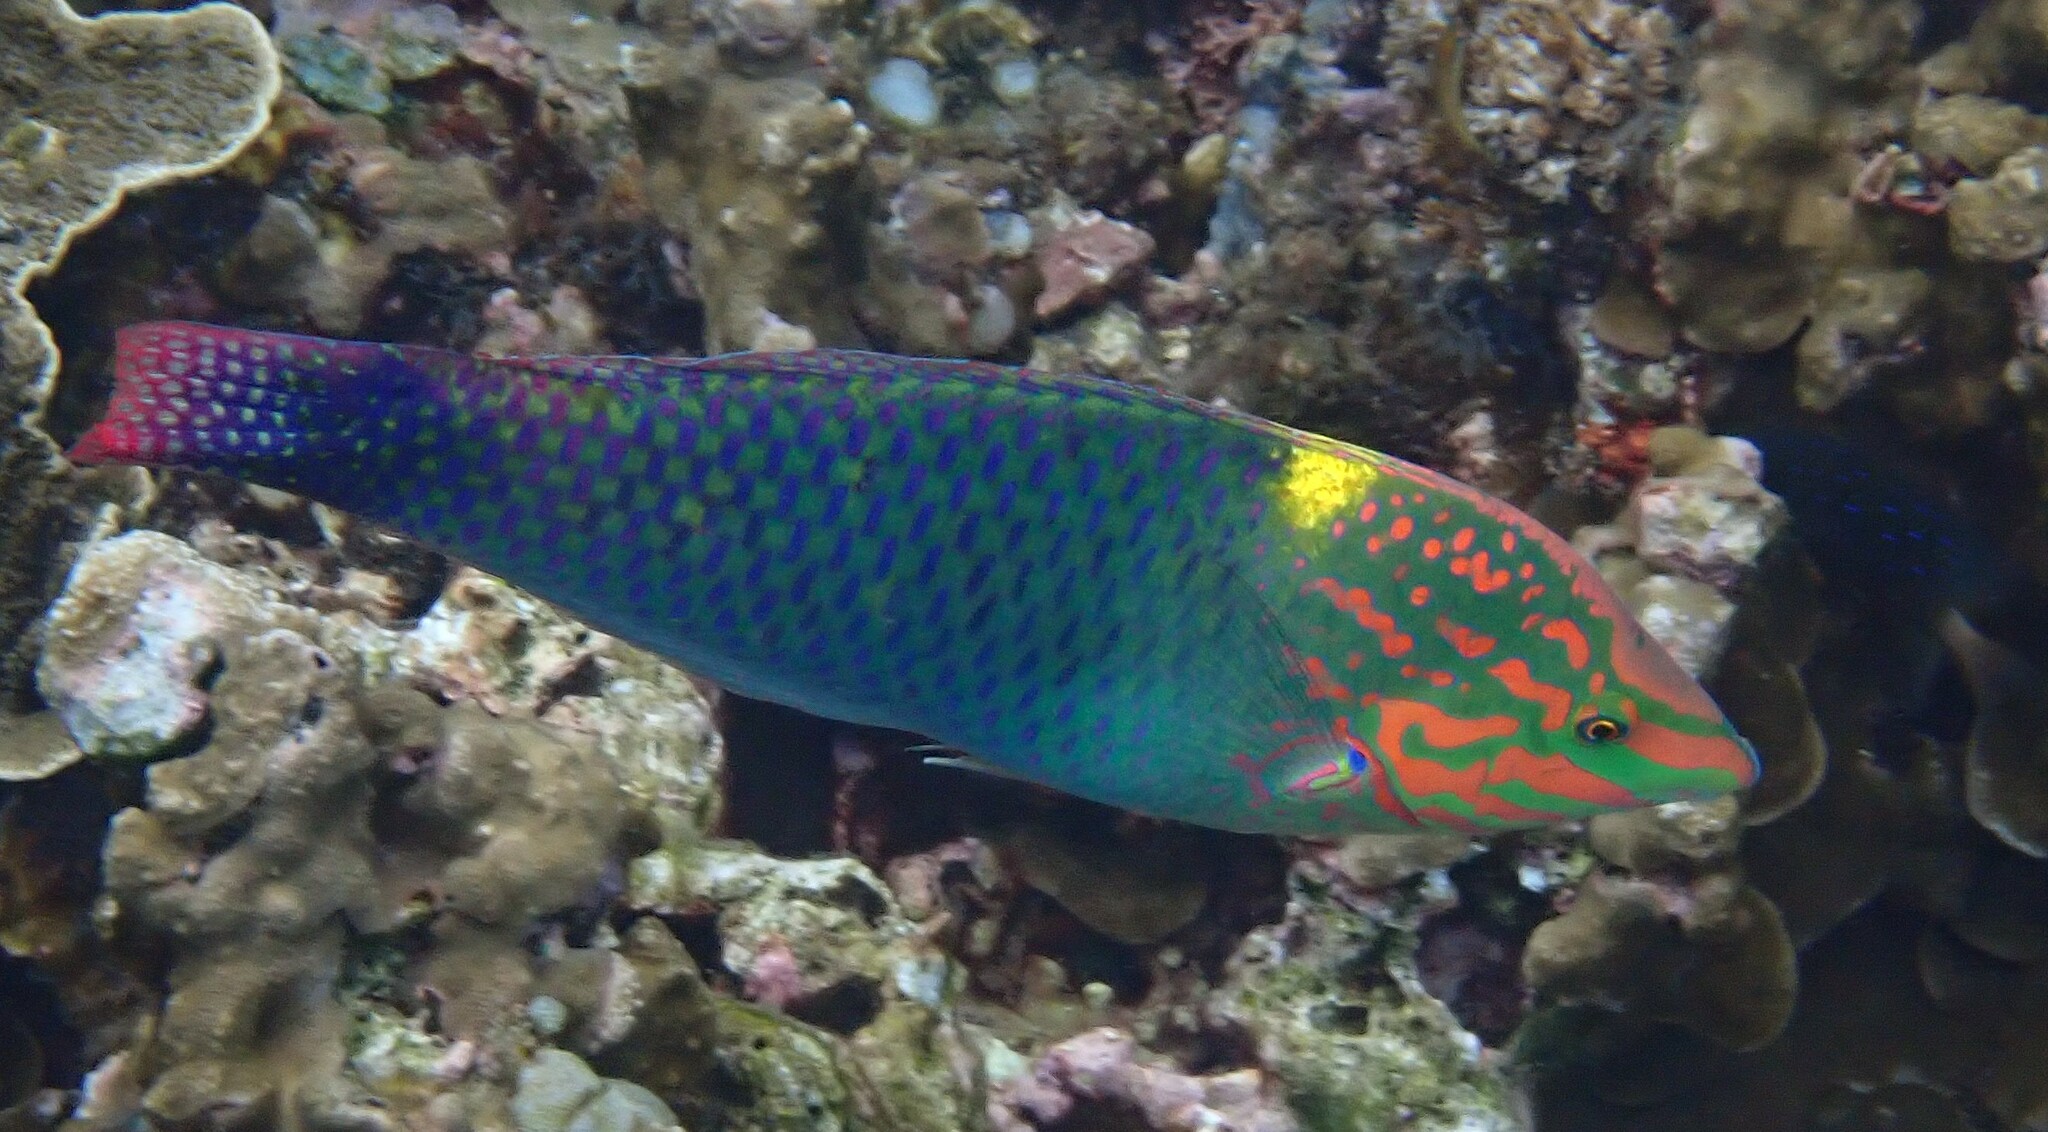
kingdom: Animalia
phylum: Chordata
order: Perciformes
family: Labridae
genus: Halichoeres
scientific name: Halichoeres hortulanus
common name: Checkerboard wrasse
